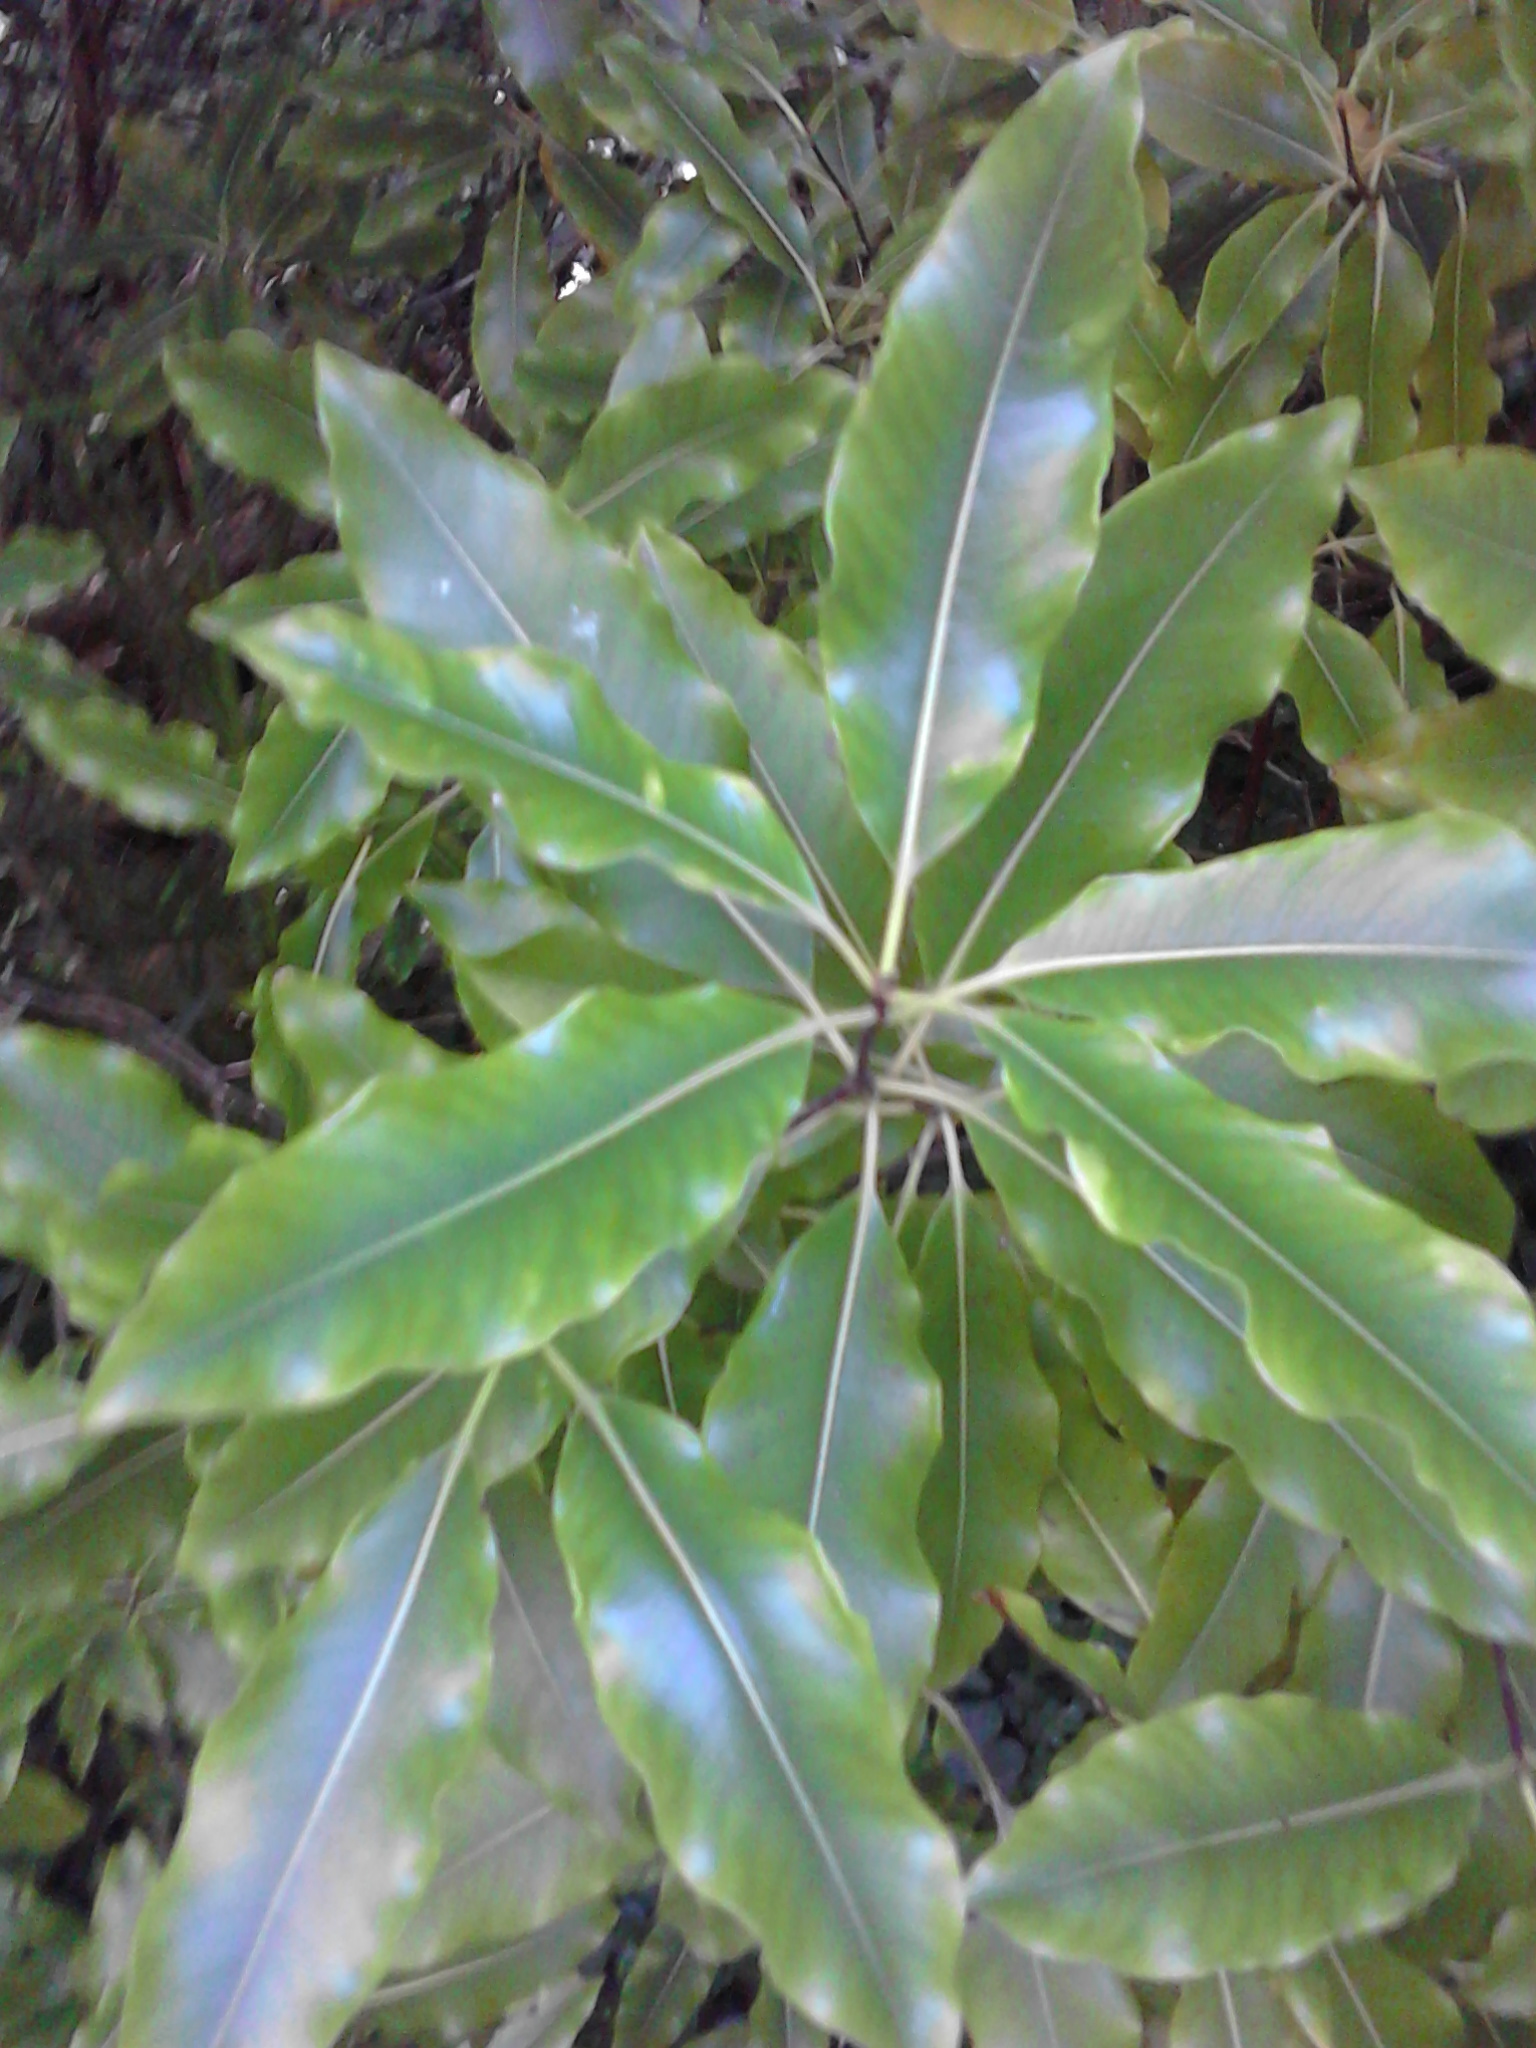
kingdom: Plantae
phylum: Tracheophyta
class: Magnoliopsida
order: Apiales
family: Pittosporaceae
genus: Pittosporum
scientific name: Pittosporum eugenioides
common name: Lemonwood
